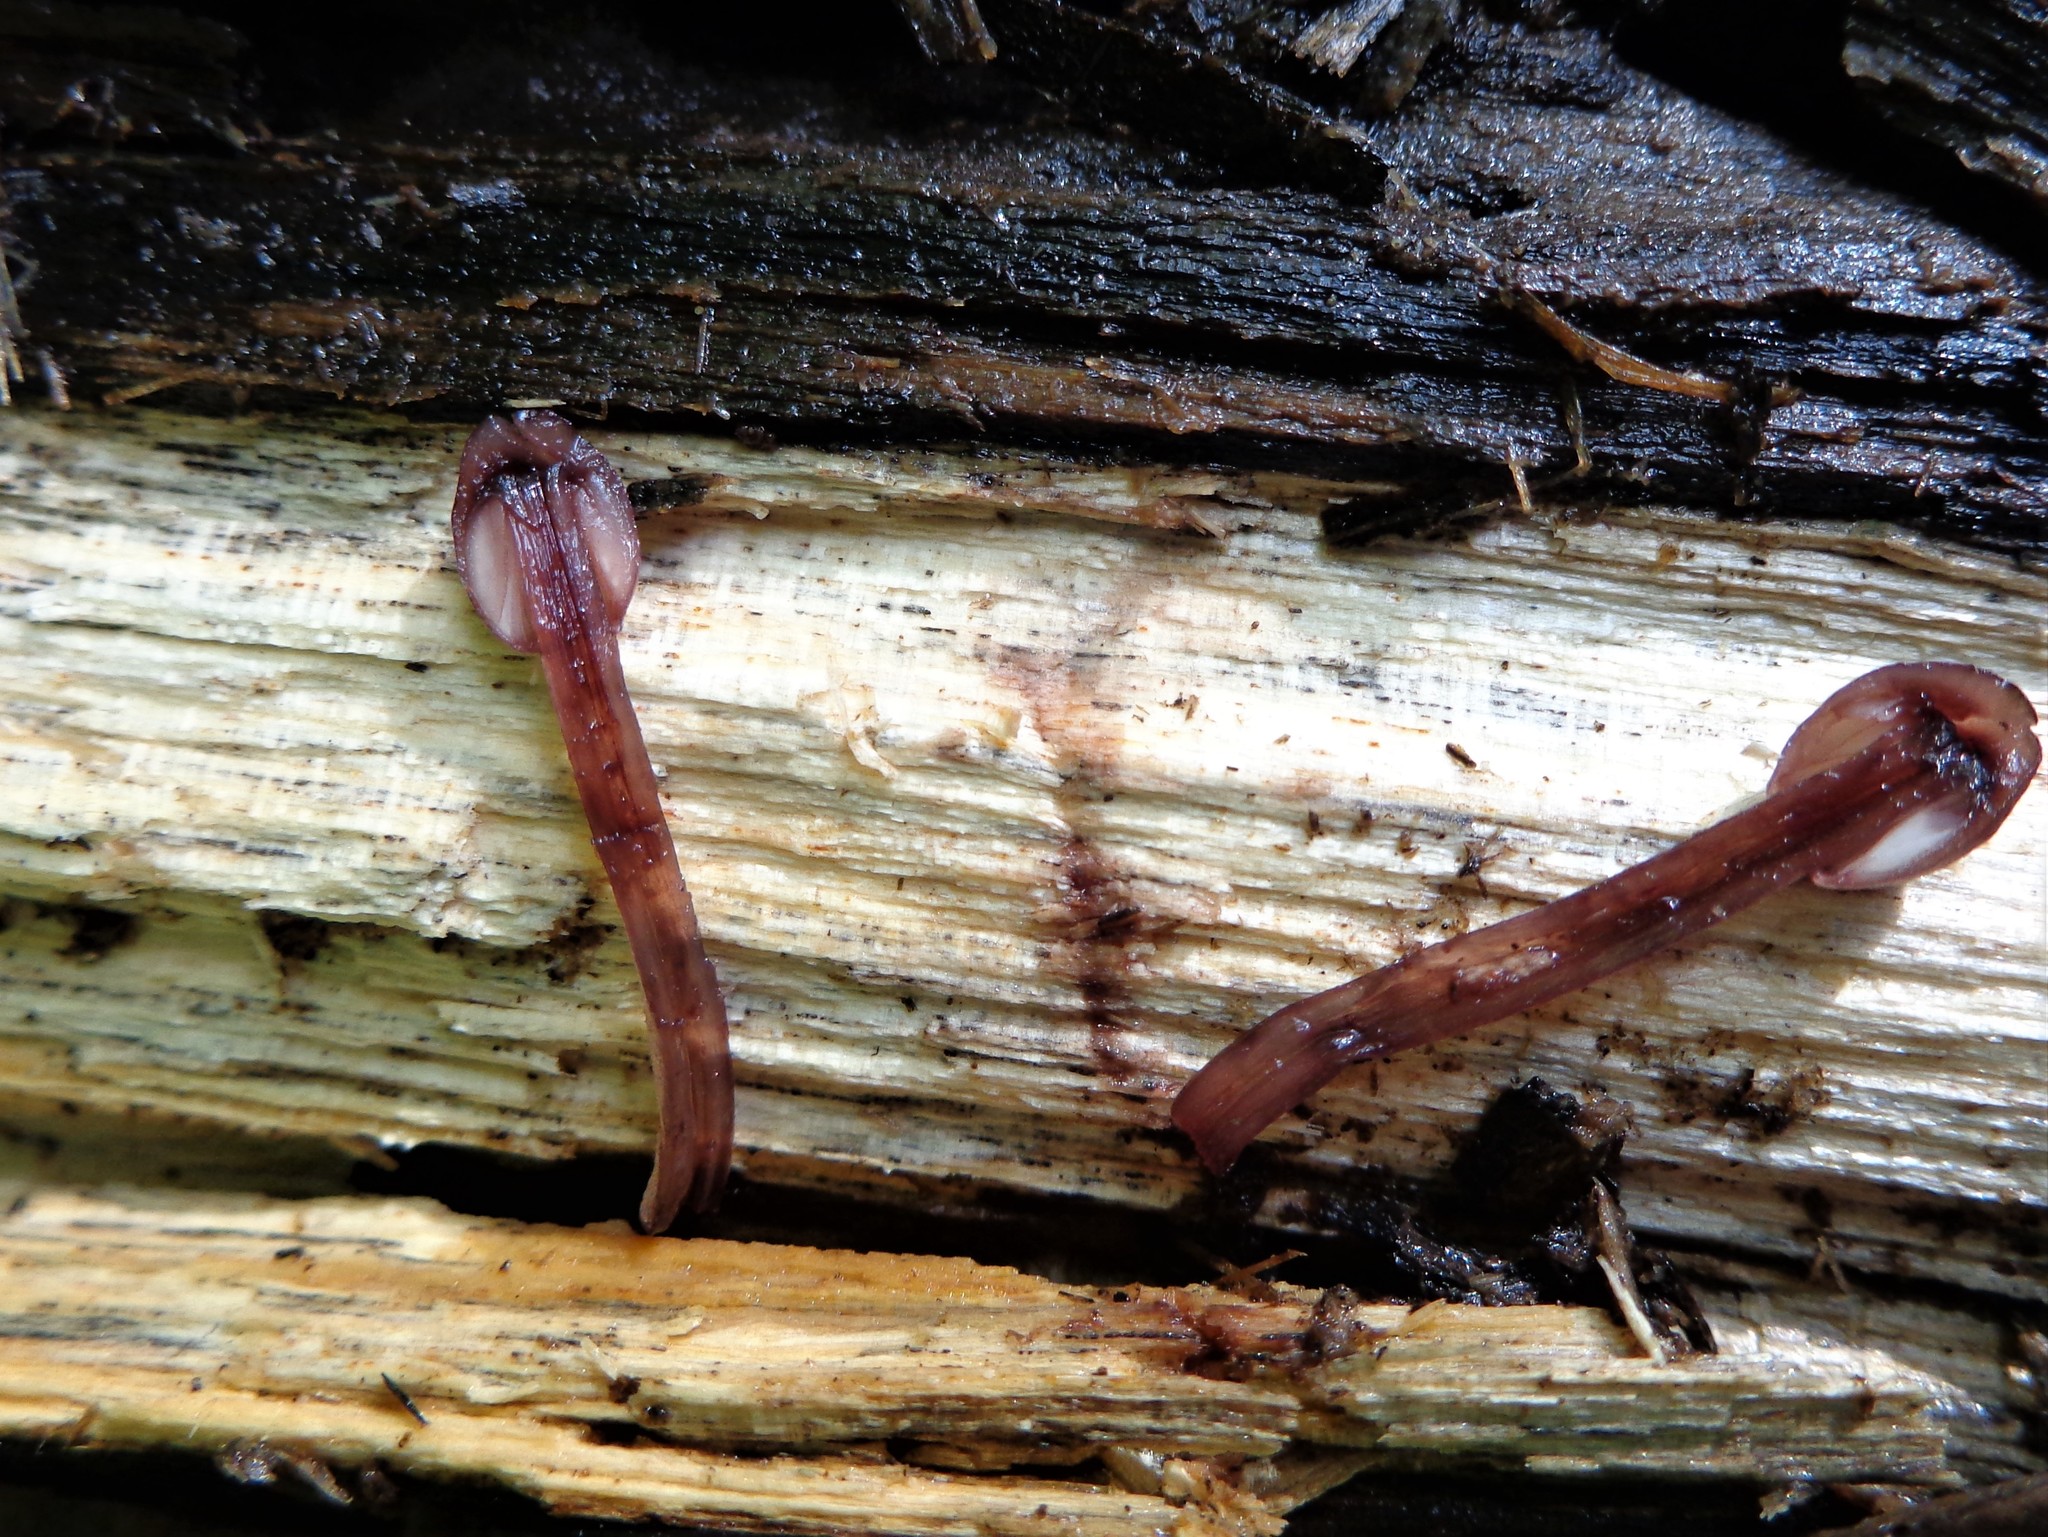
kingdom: Fungi
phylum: Basidiomycota
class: Agaricomycetes
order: Agaricales
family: Mycenaceae
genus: Mycena
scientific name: Mycena haematopus
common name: Burgundydrop bonnet
